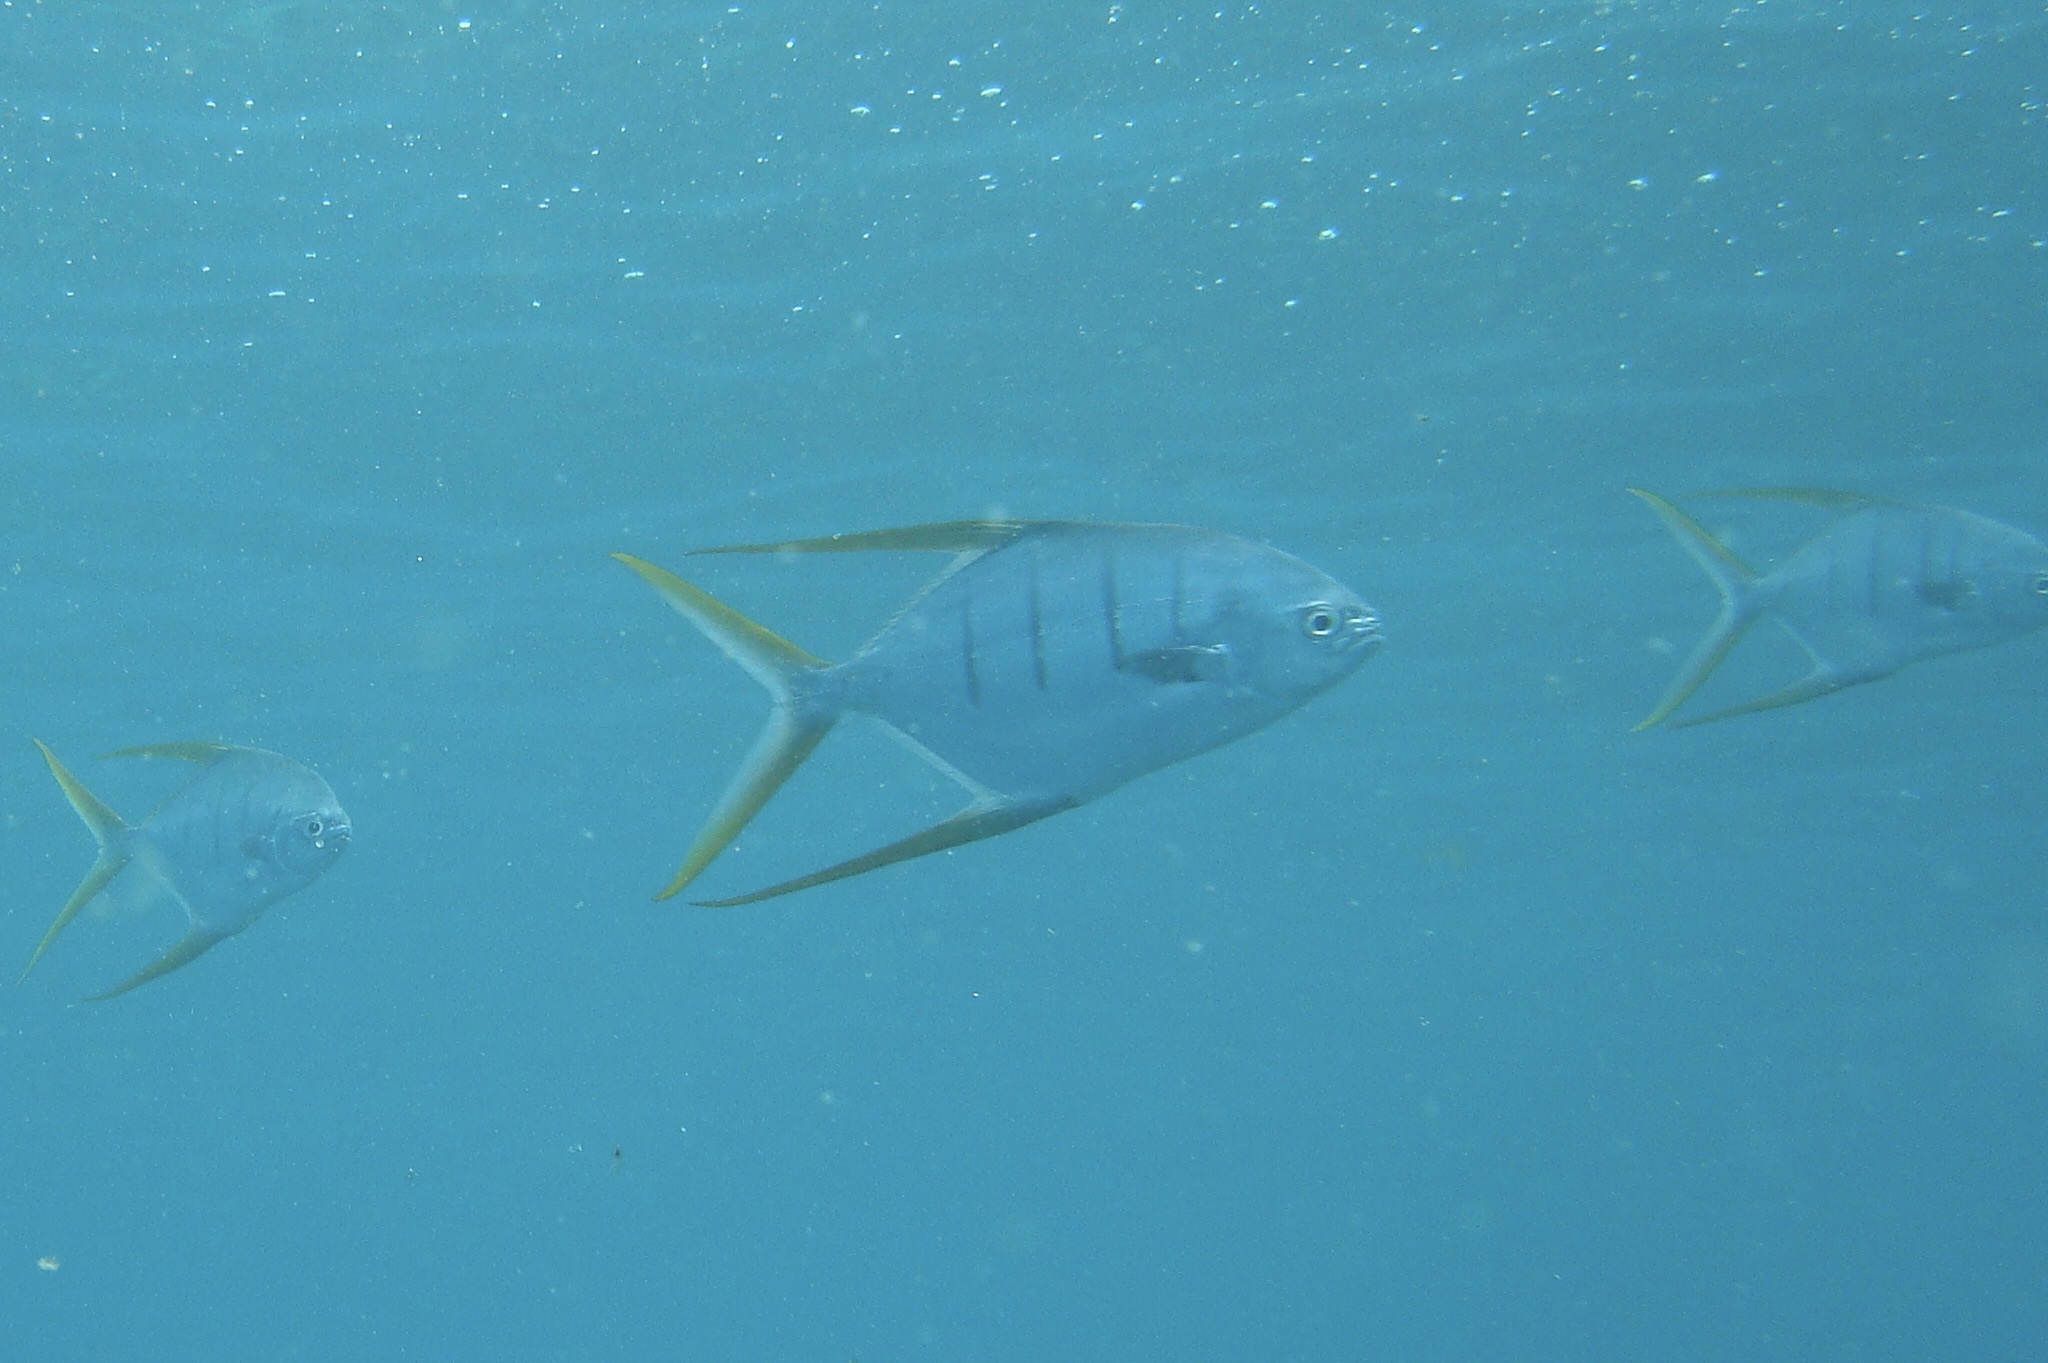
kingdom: Animalia
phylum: Chordata
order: Perciformes
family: Carangidae
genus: Trachinotus
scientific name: Trachinotus rhodopus
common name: Gafftopsail pompano
